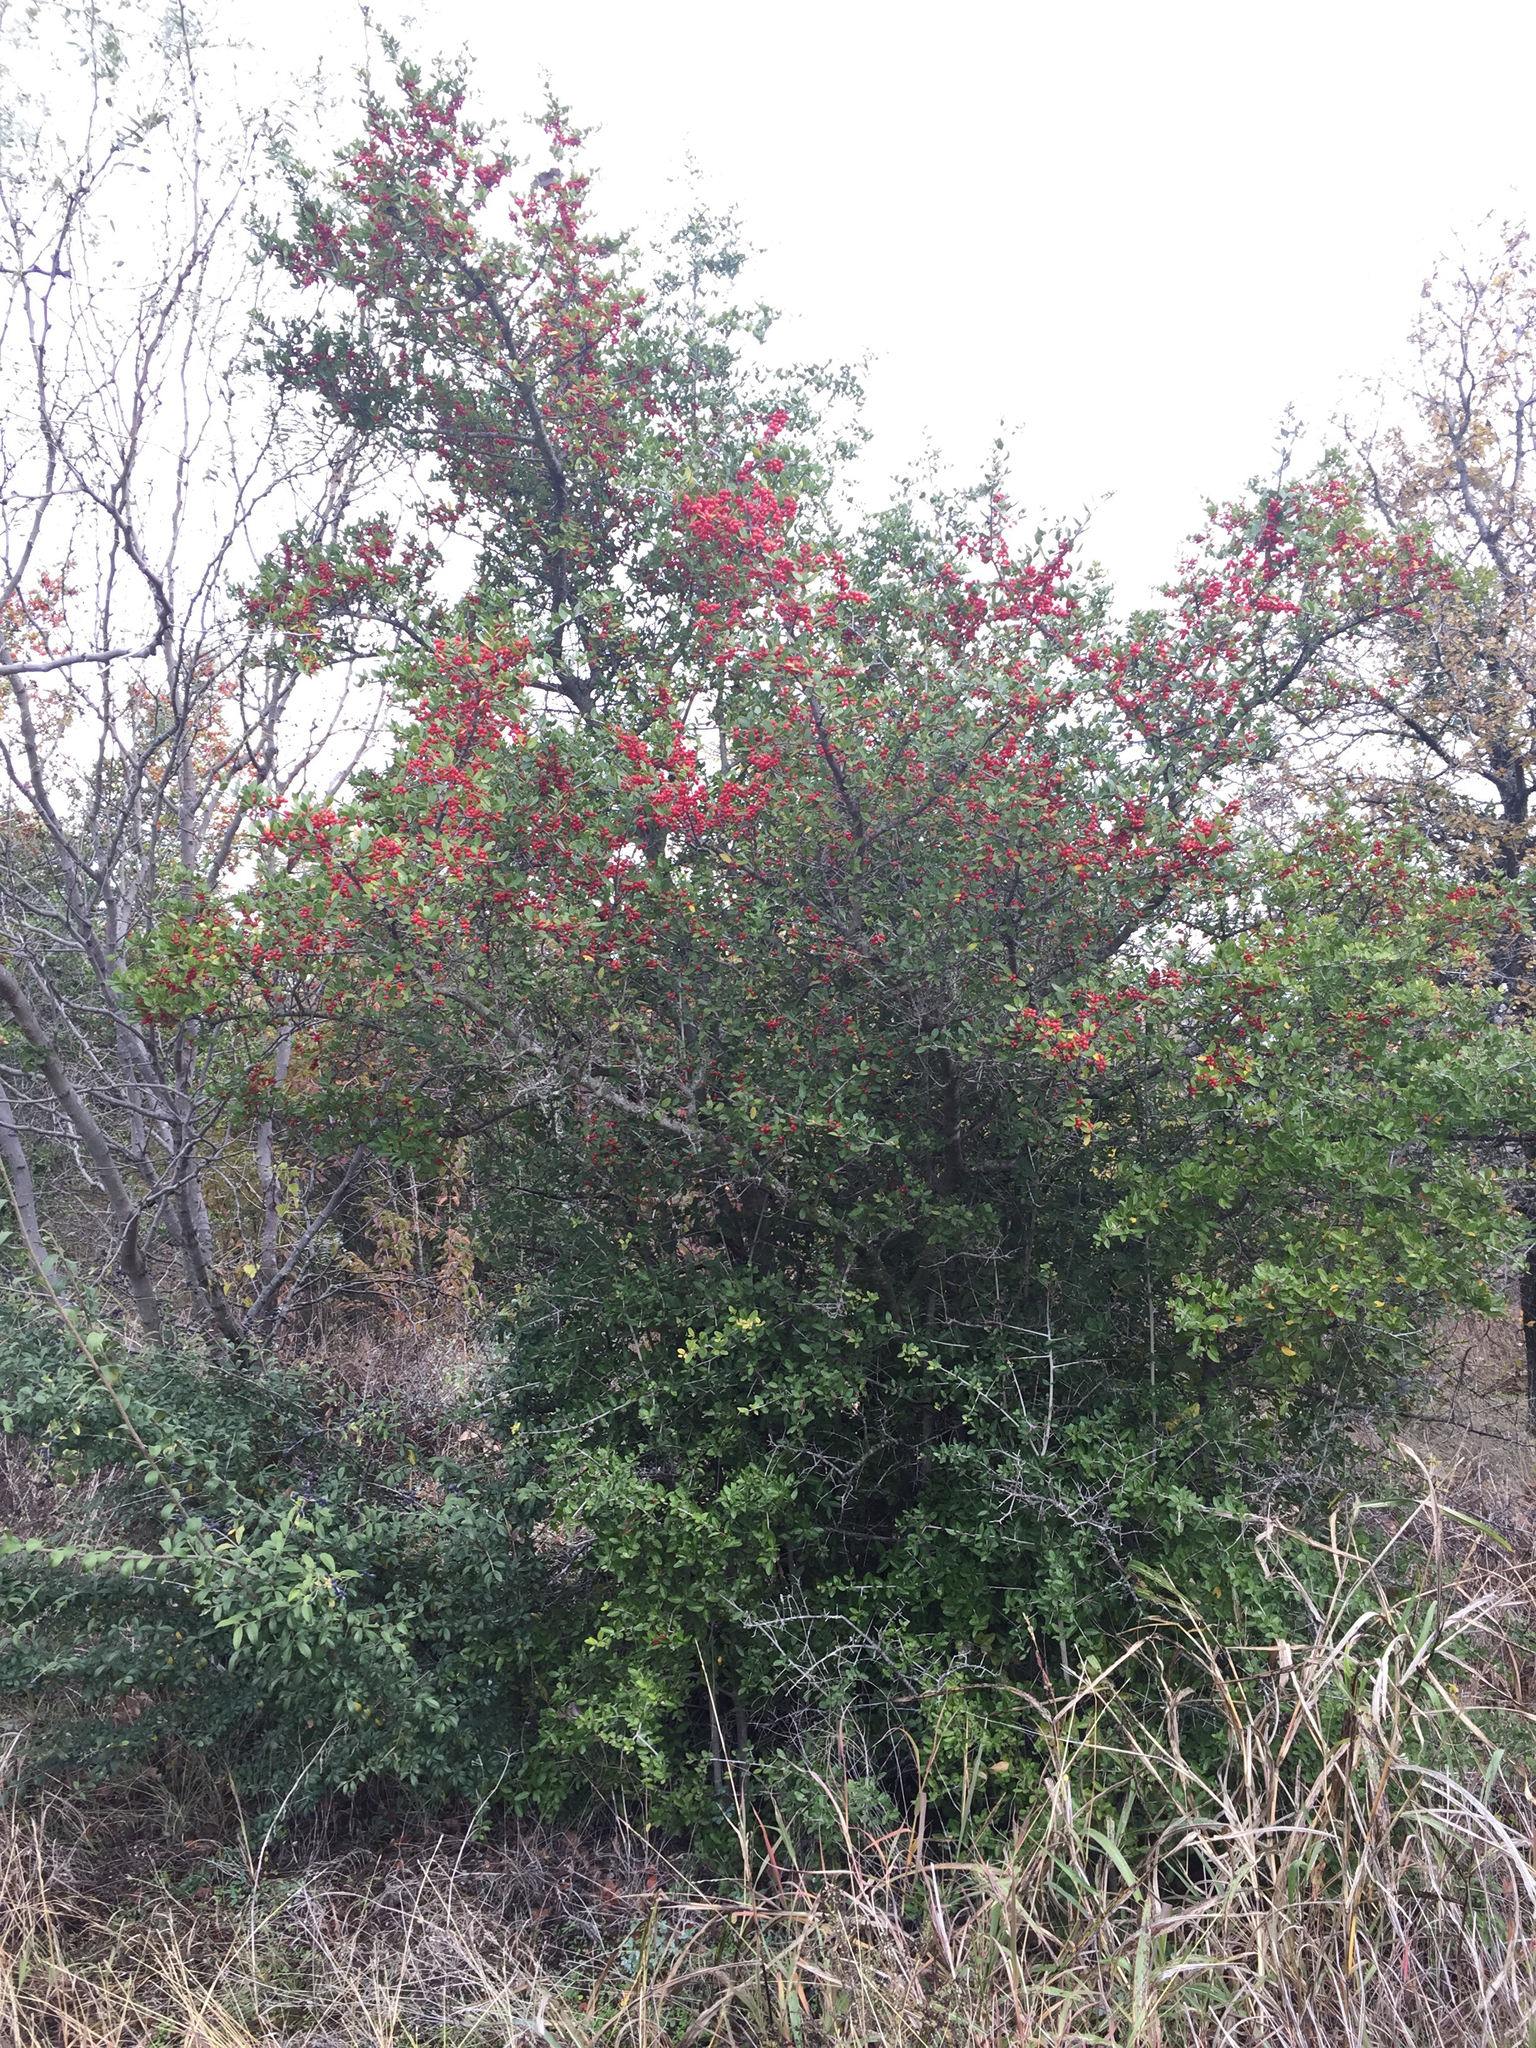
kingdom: Plantae
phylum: Tracheophyta
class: Magnoliopsida
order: Aquifoliales
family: Aquifoliaceae
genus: Ilex
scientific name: Ilex vomitoria
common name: Yaupon holly
